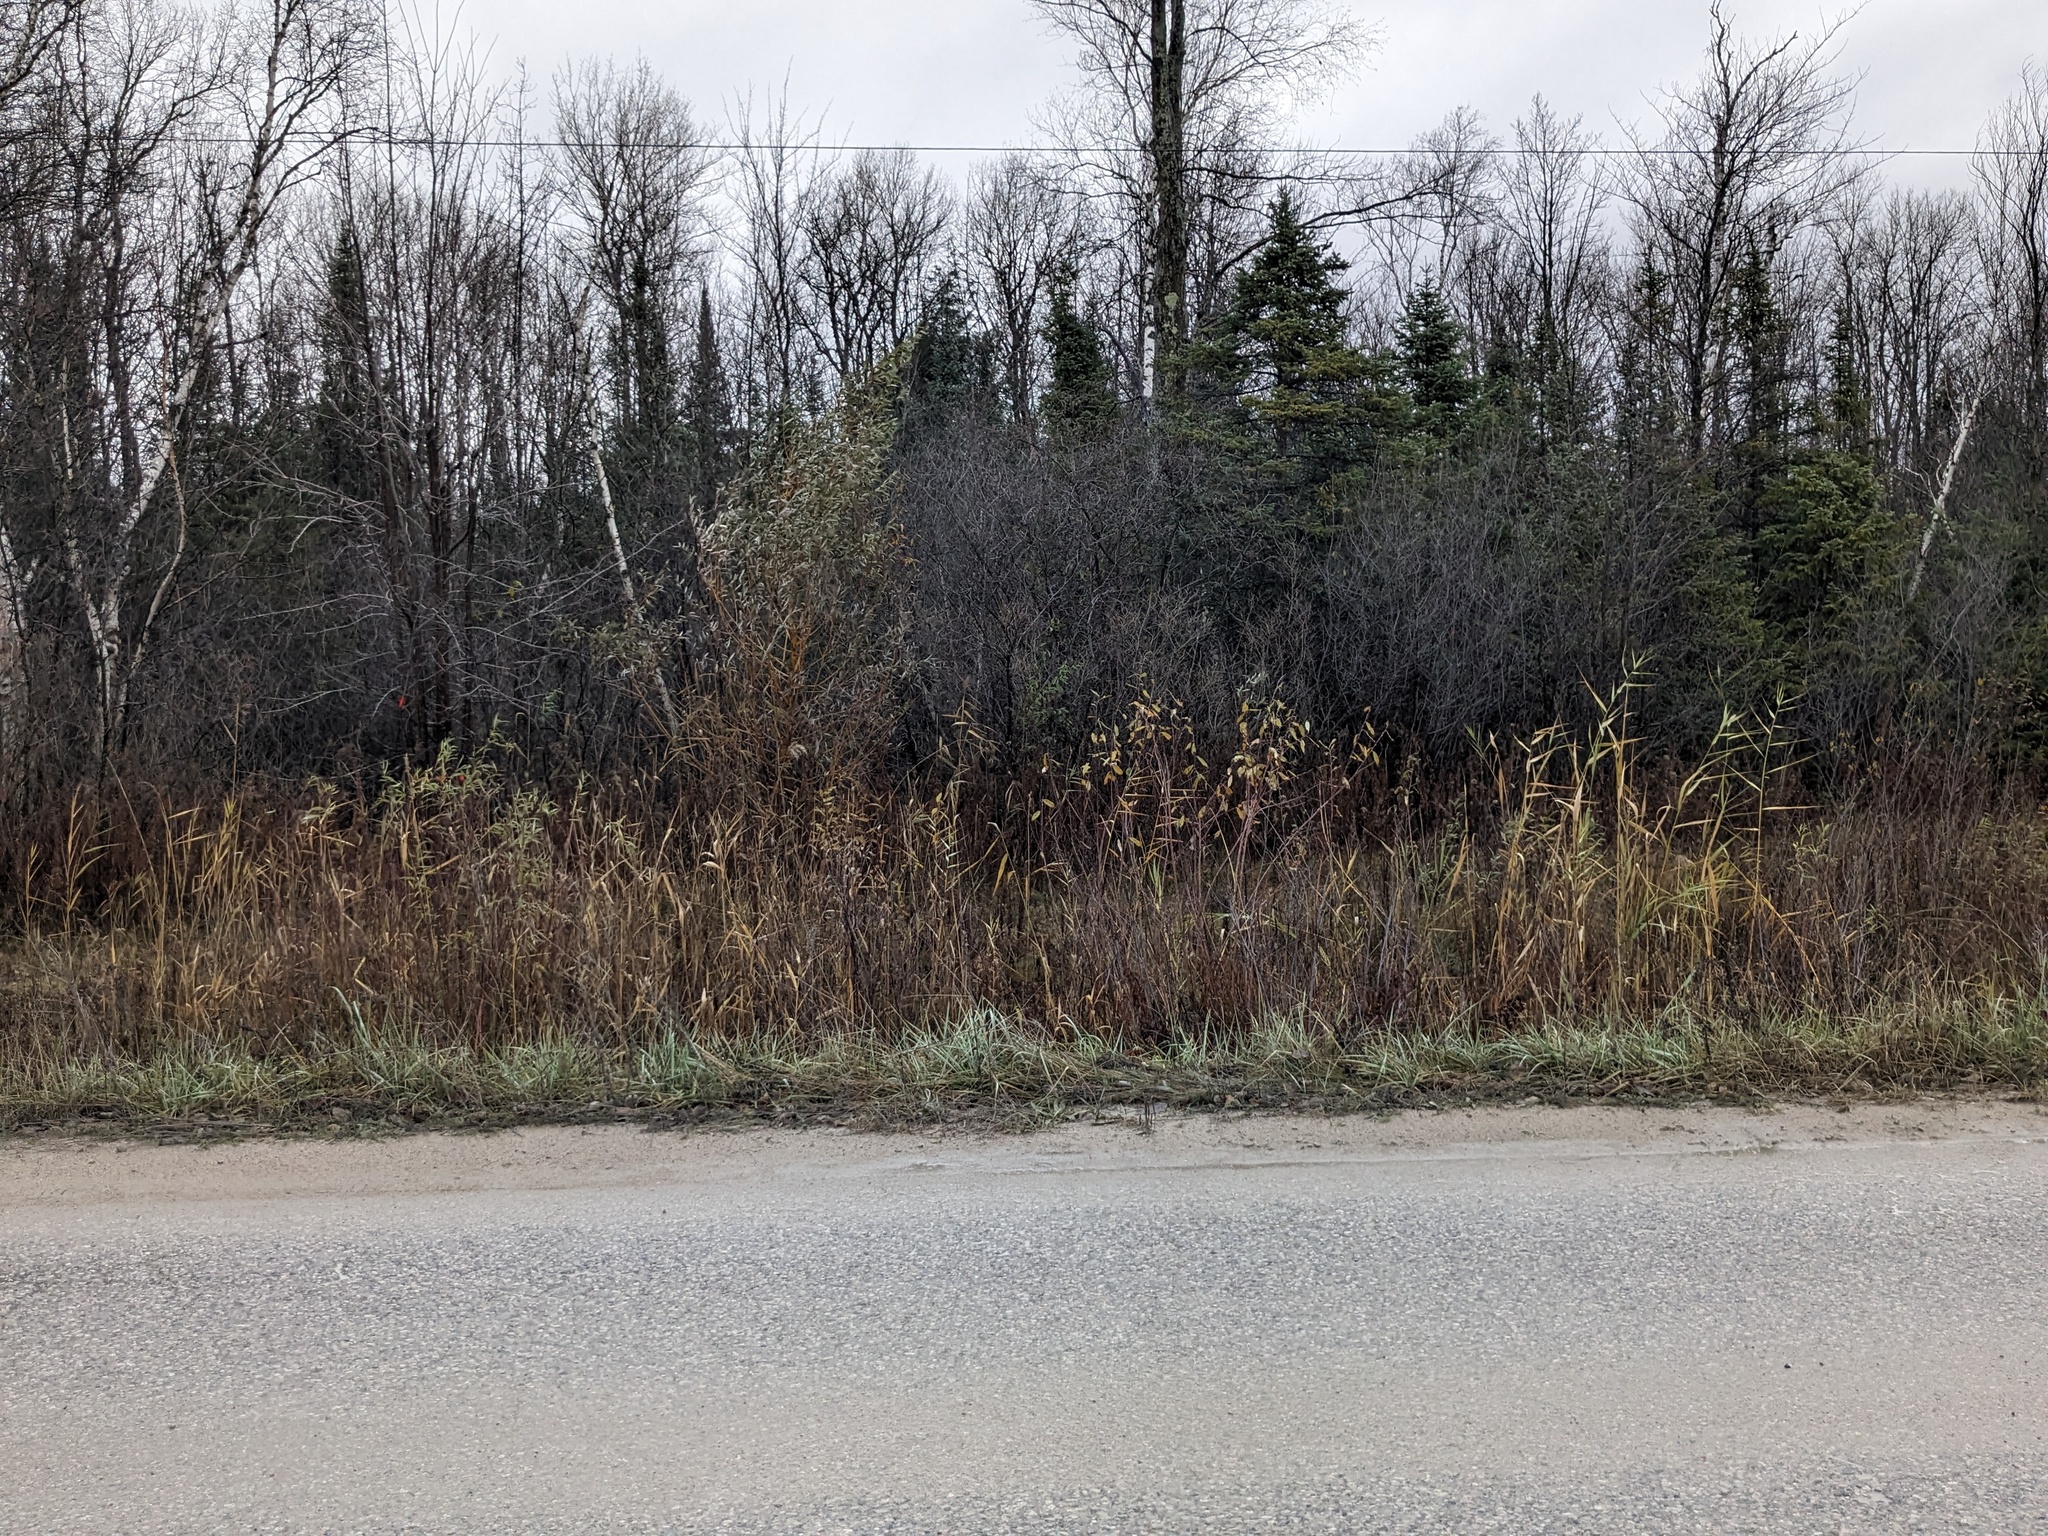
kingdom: Plantae
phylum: Tracheophyta
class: Liliopsida
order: Poales
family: Poaceae
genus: Phragmites
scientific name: Phragmites australis
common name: Common reed
